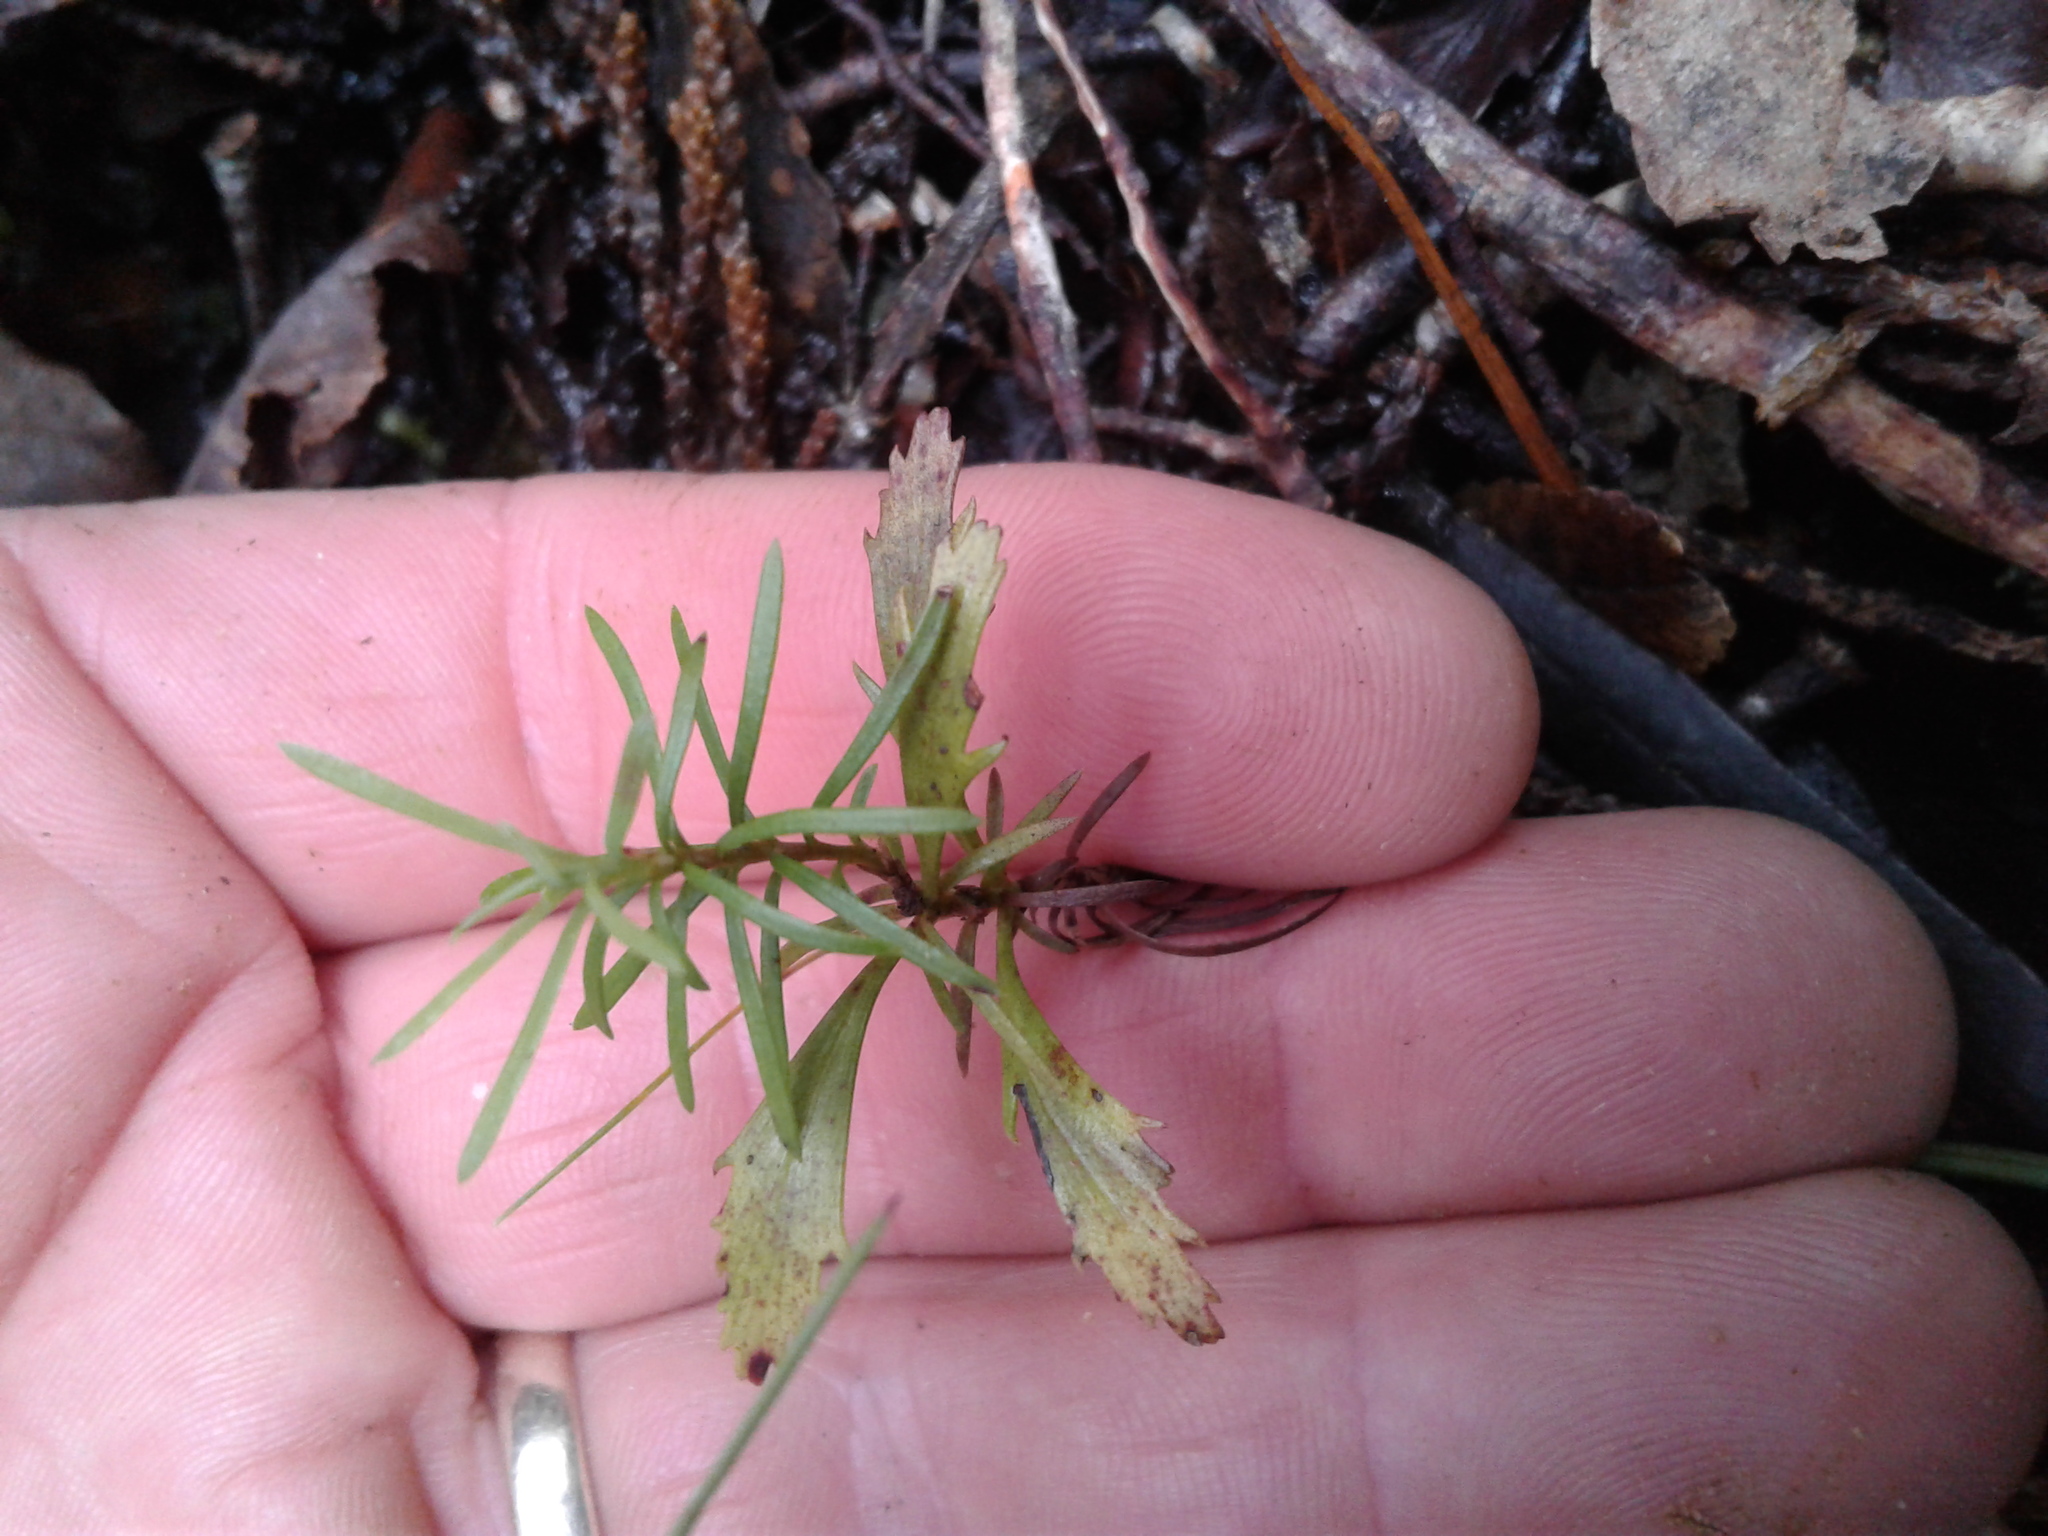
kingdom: Plantae
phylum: Tracheophyta
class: Pinopsida
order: Pinales
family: Phyllocladaceae
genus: Phyllocladus
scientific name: Phyllocladus trichomanoides
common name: Celery pine
